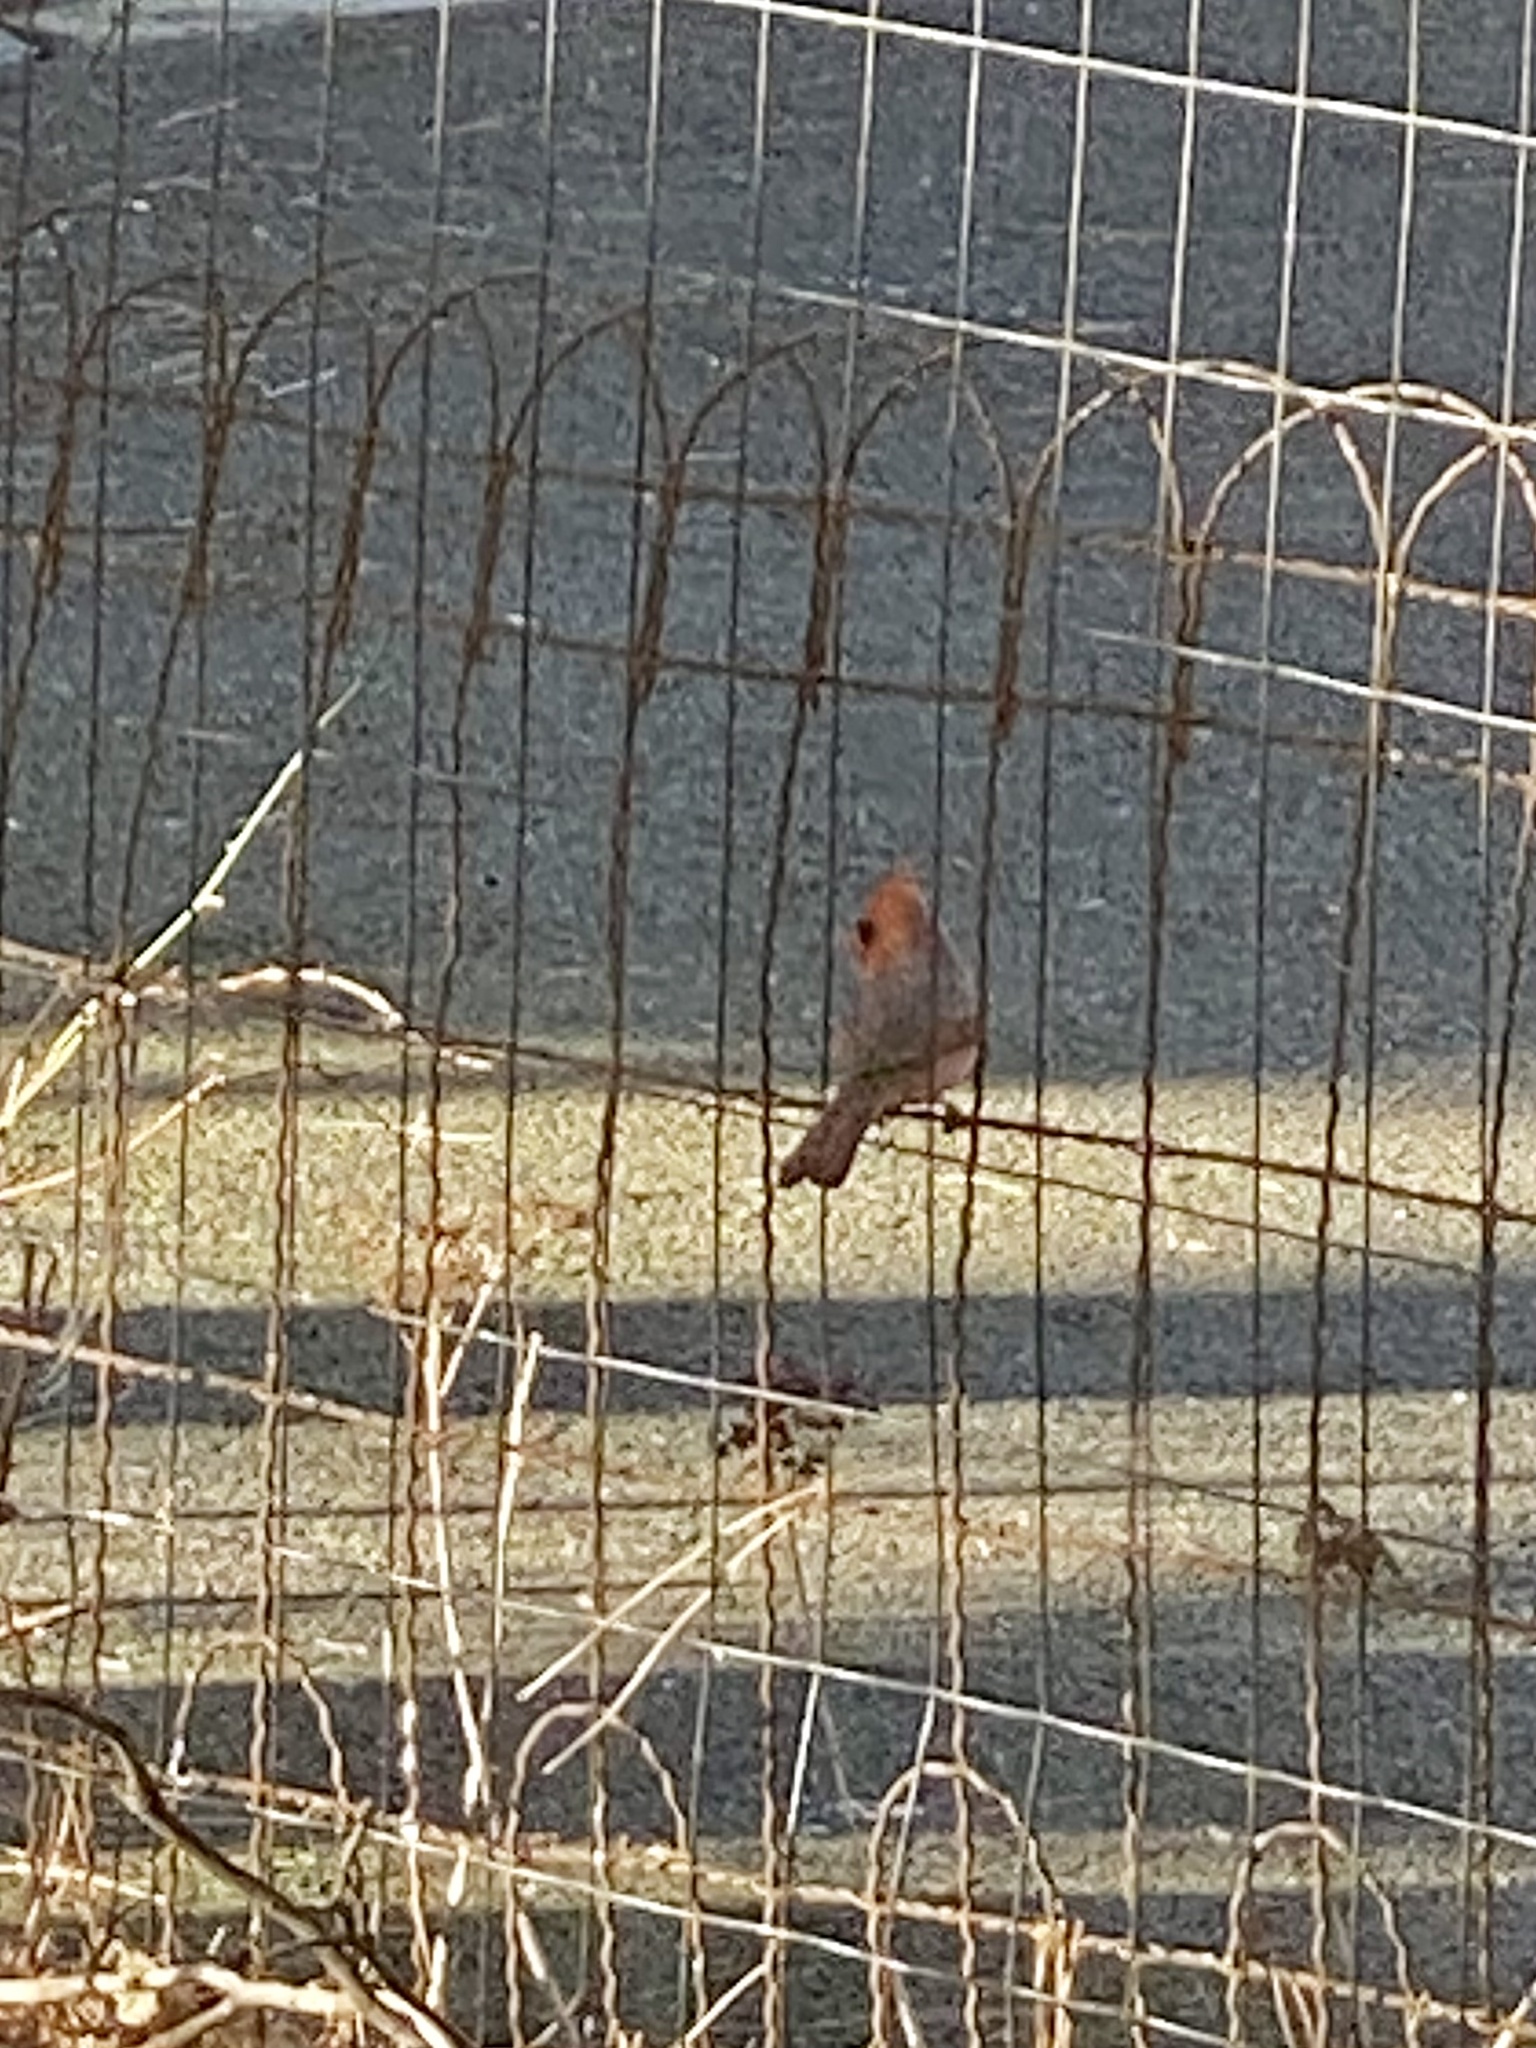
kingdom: Animalia
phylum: Chordata
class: Aves
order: Passeriformes
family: Cardinalidae
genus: Cardinalis
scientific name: Cardinalis cardinalis
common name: Northern cardinal
